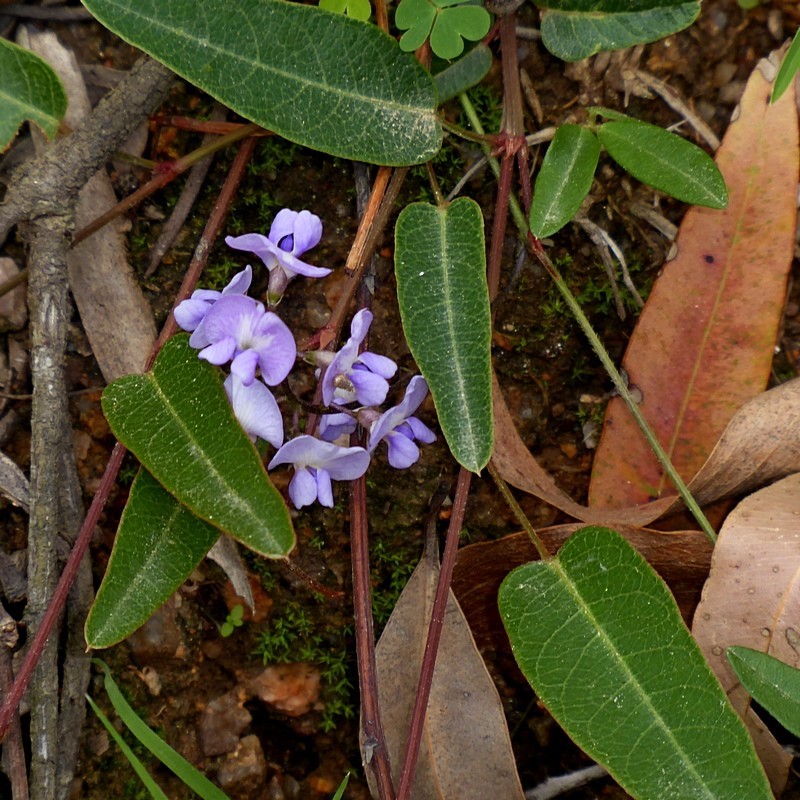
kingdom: Plantae
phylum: Tracheophyta
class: Magnoliopsida
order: Fabales
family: Fabaceae
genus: Hardenbergia
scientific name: Hardenbergia violacea
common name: Coral-pea
